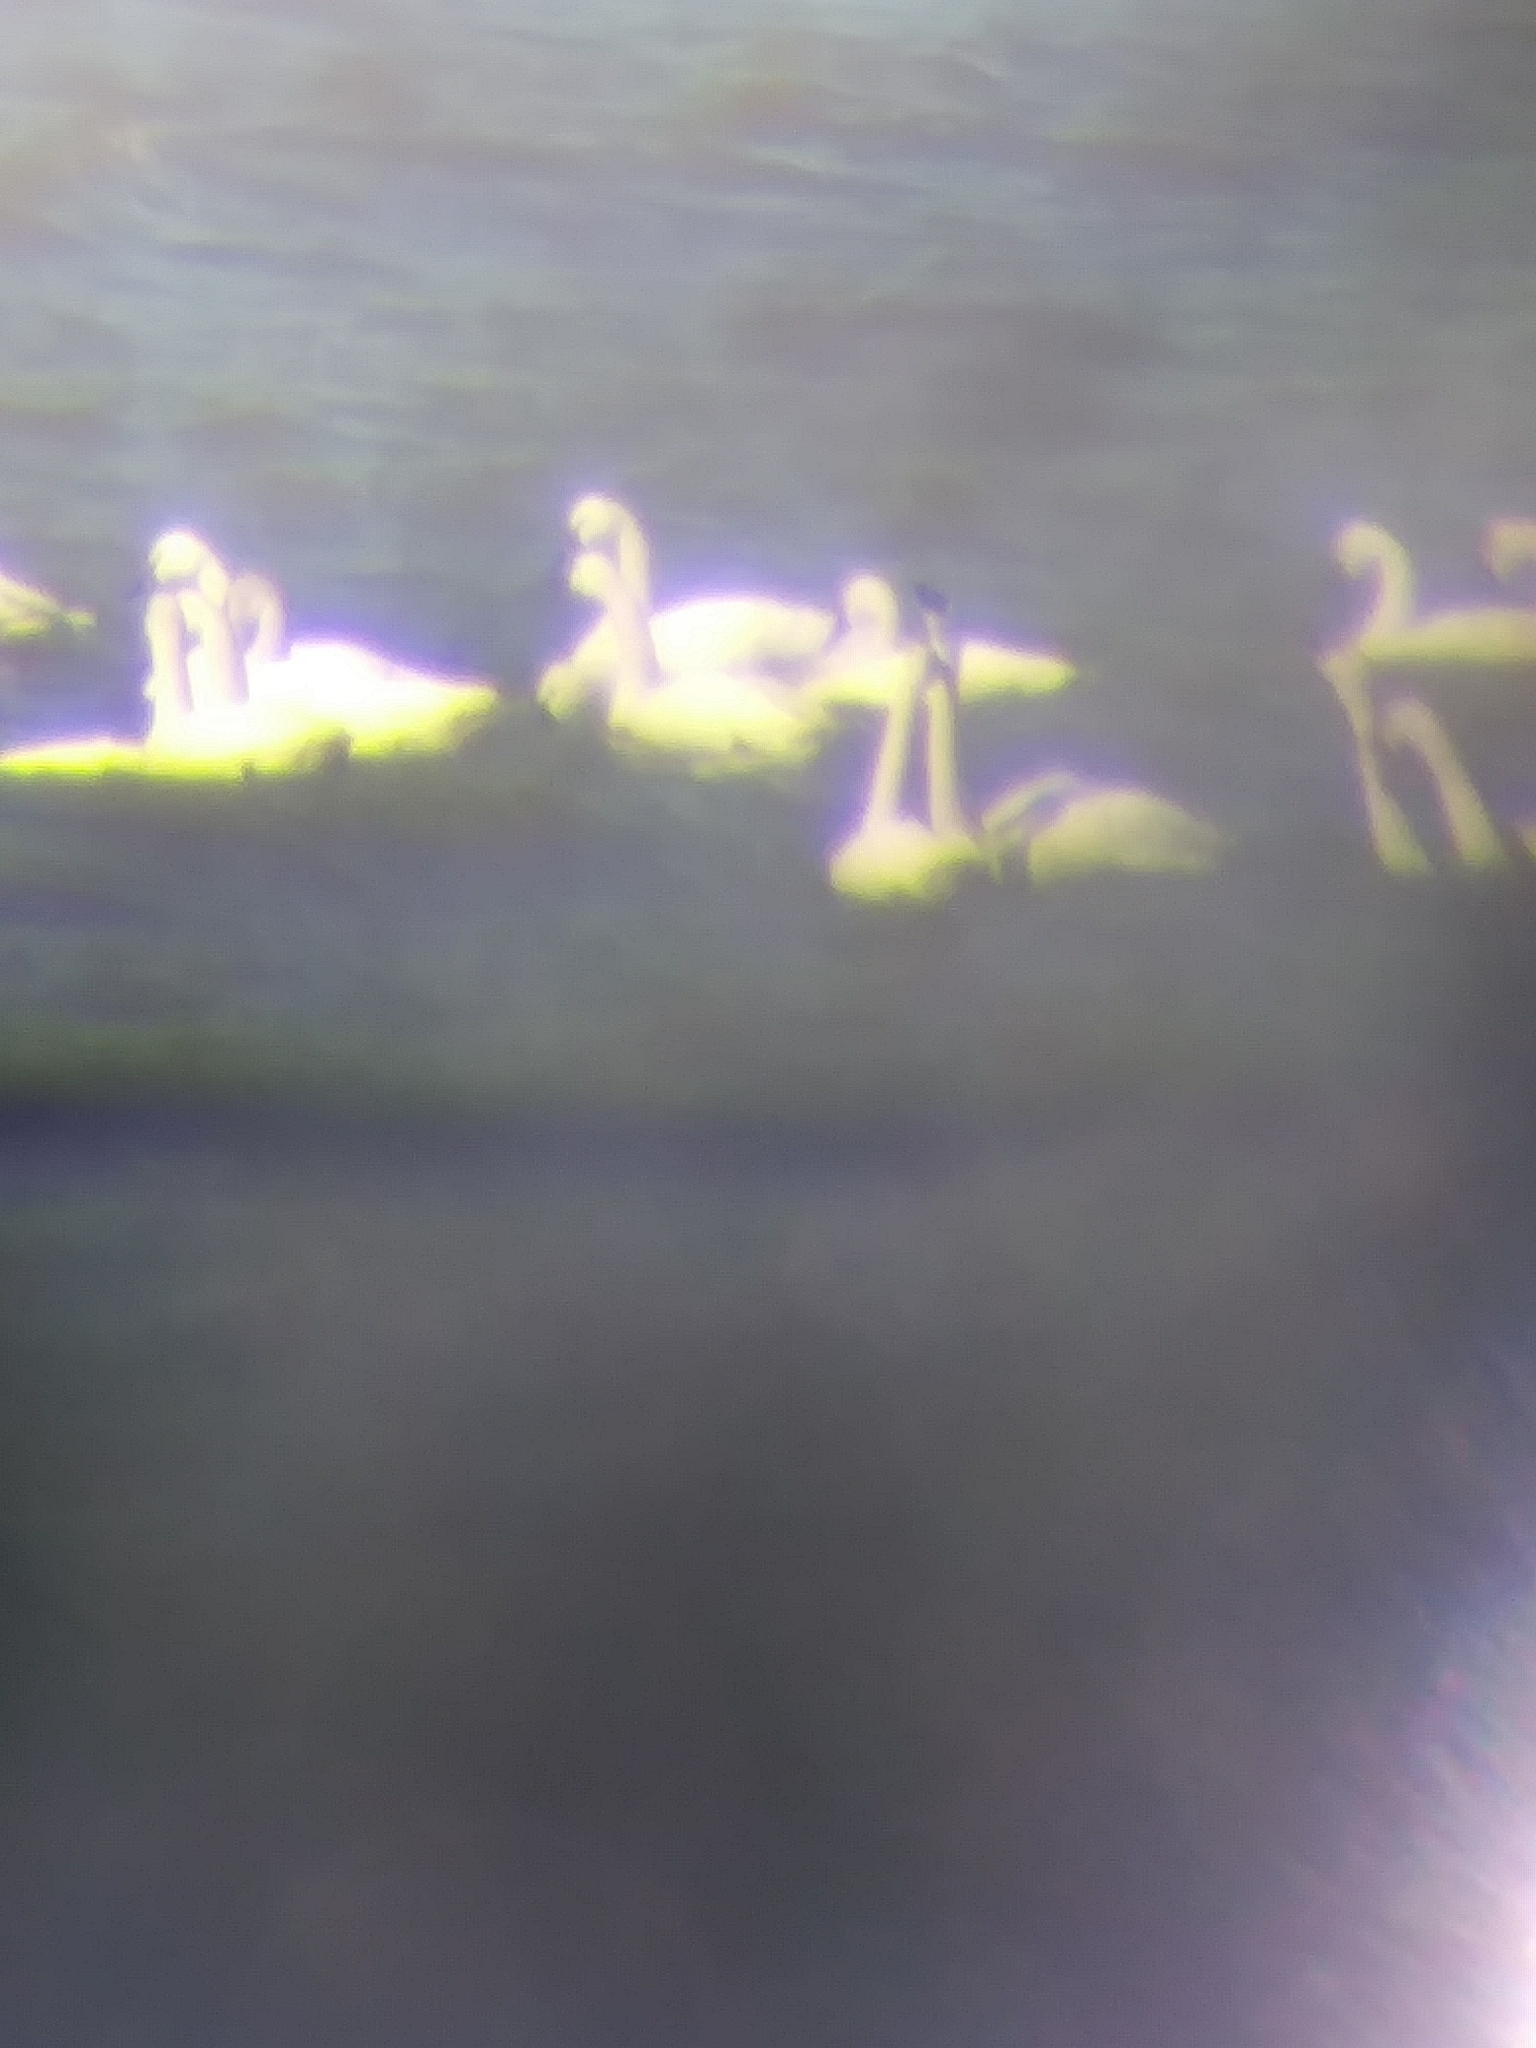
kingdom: Animalia
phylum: Chordata
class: Aves
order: Anseriformes
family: Anatidae
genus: Cygnus
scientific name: Cygnus columbianus
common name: Tundra swan
